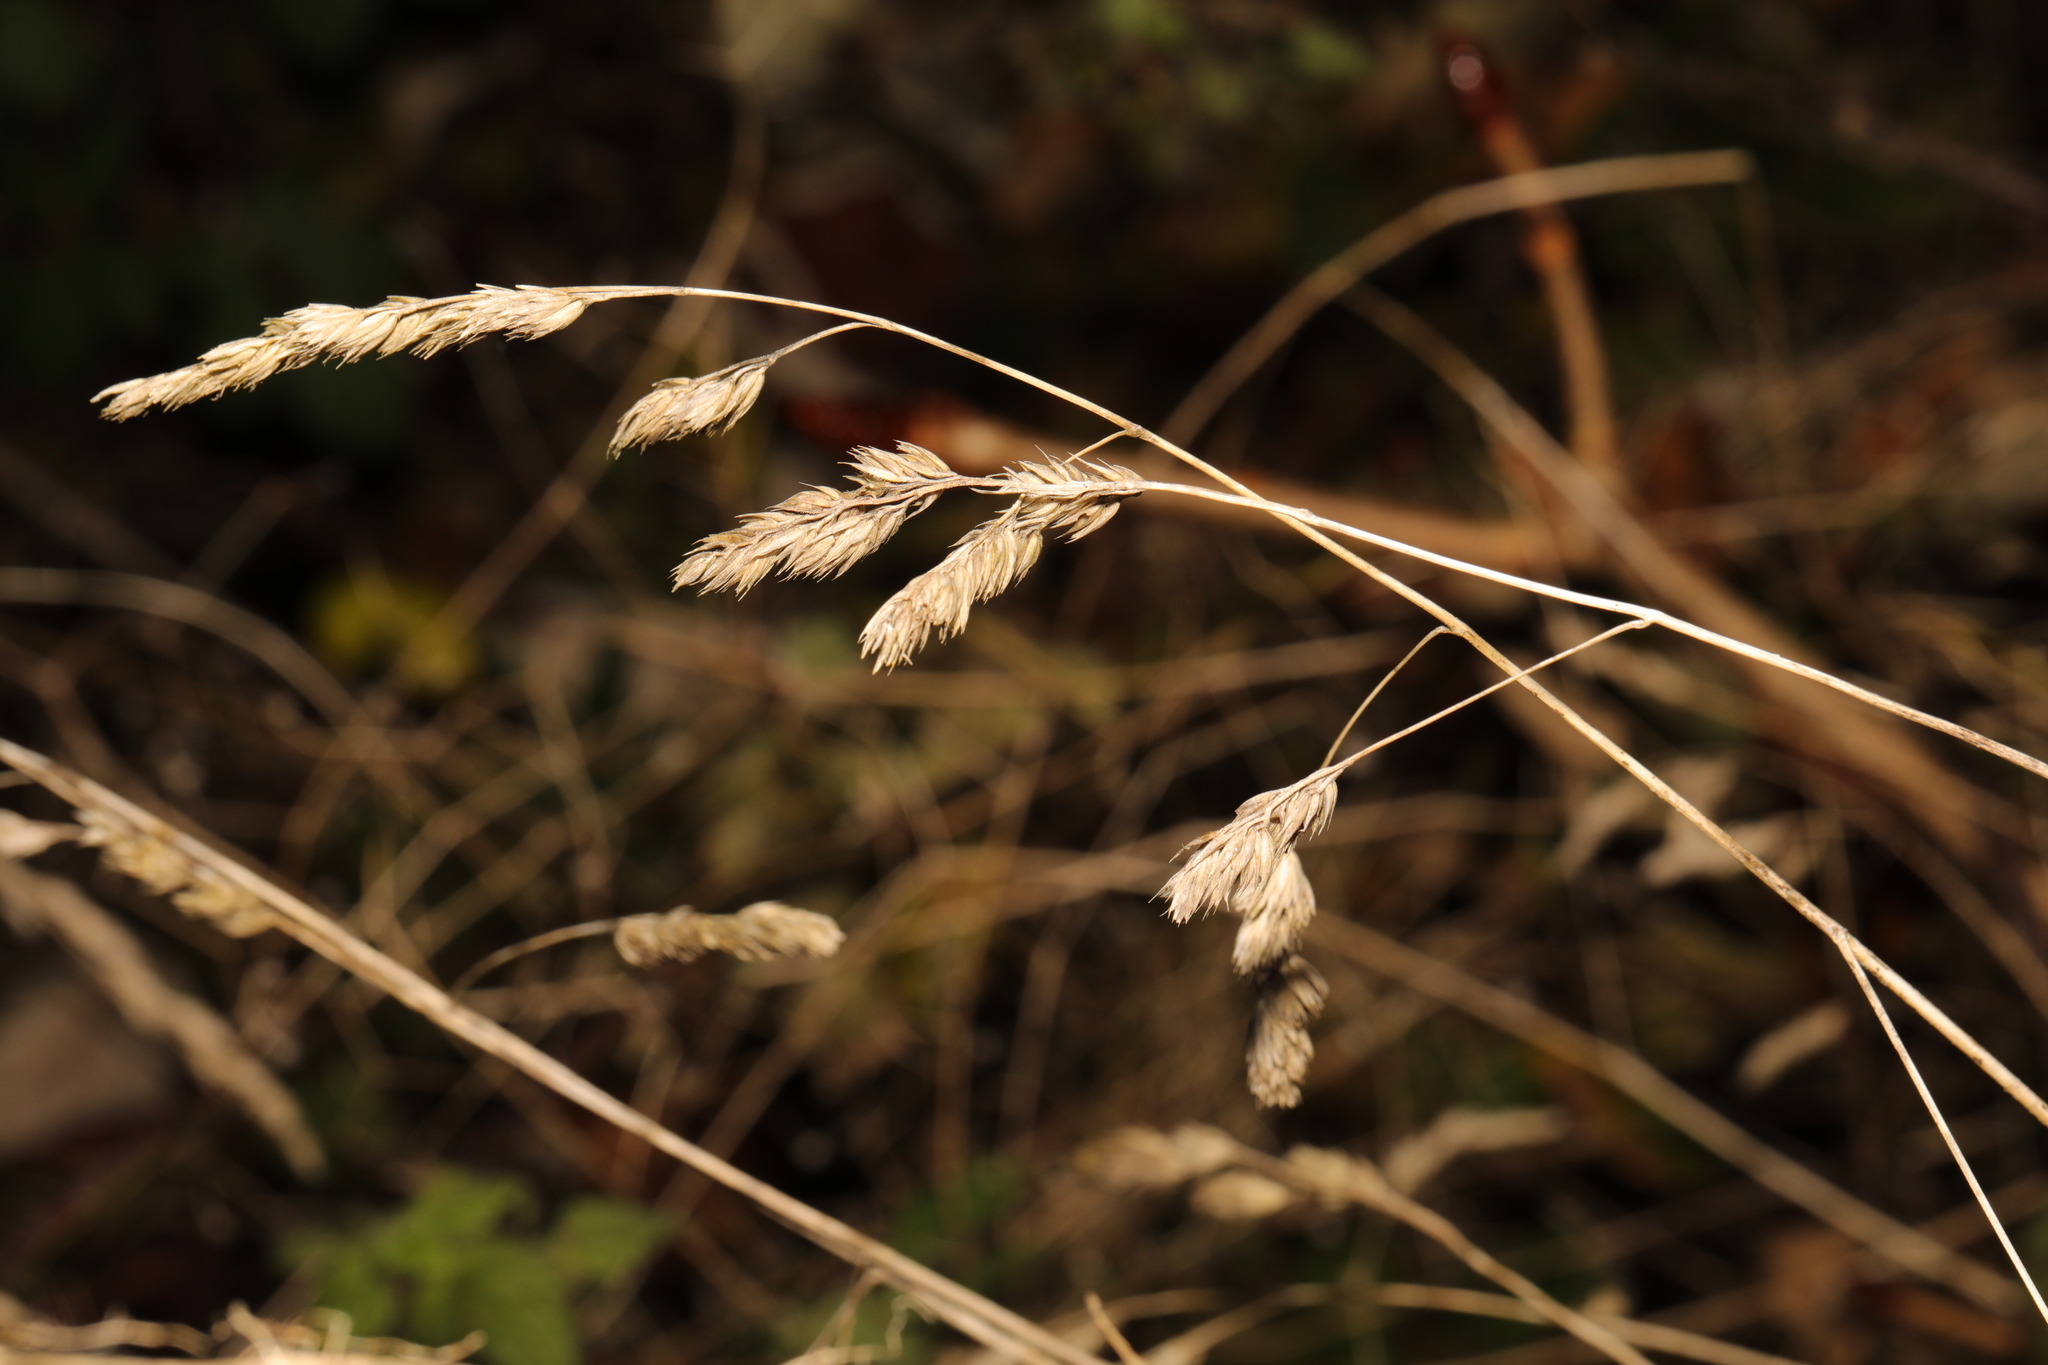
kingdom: Plantae
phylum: Tracheophyta
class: Liliopsida
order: Poales
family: Poaceae
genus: Dactylis
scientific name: Dactylis glomerata
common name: Orchardgrass
